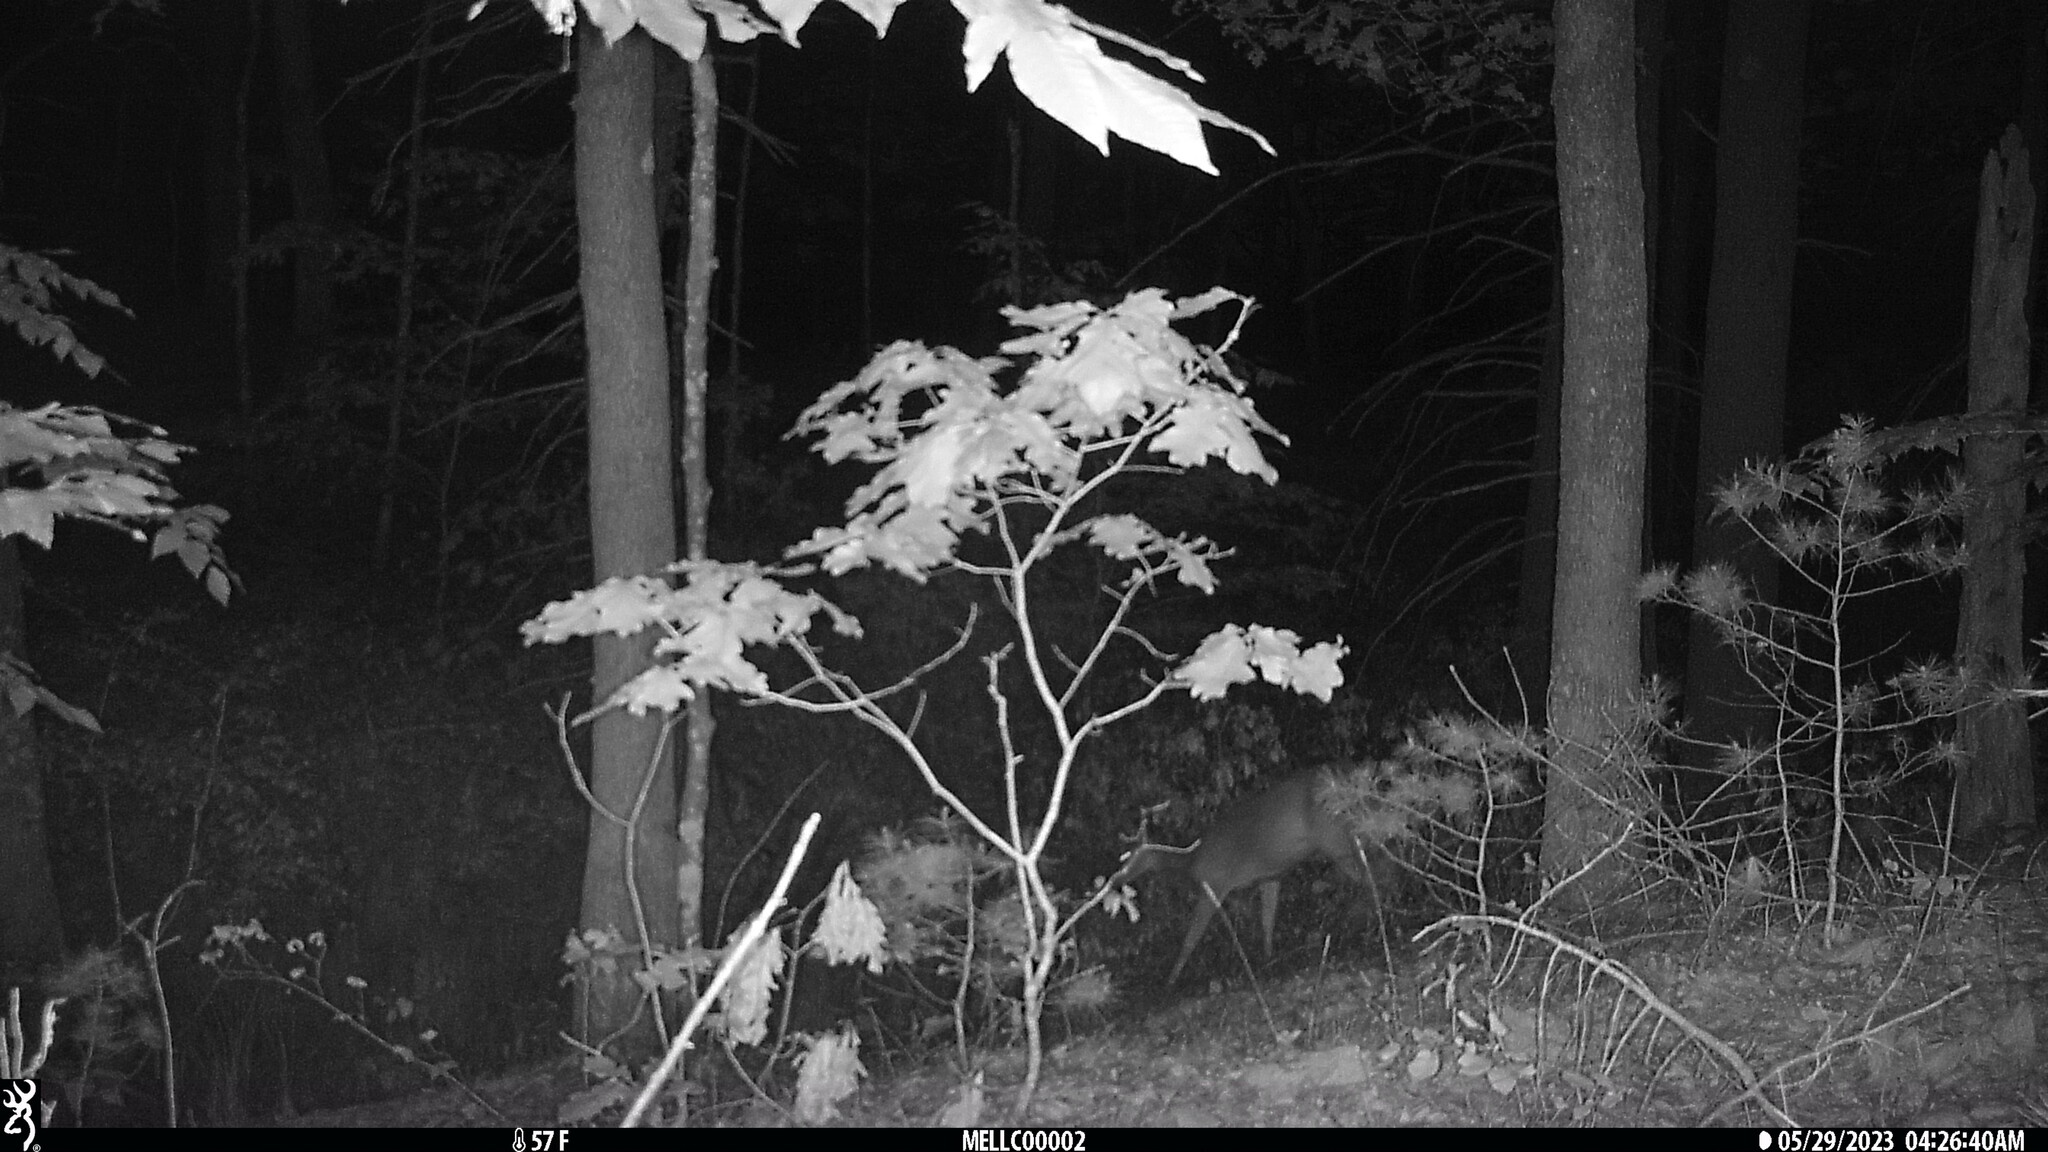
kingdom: Animalia
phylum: Chordata
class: Mammalia
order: Artiodactyla
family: Cervidae
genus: Odocoileus
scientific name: Odocoileus virginianus
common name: White-tailed deer
